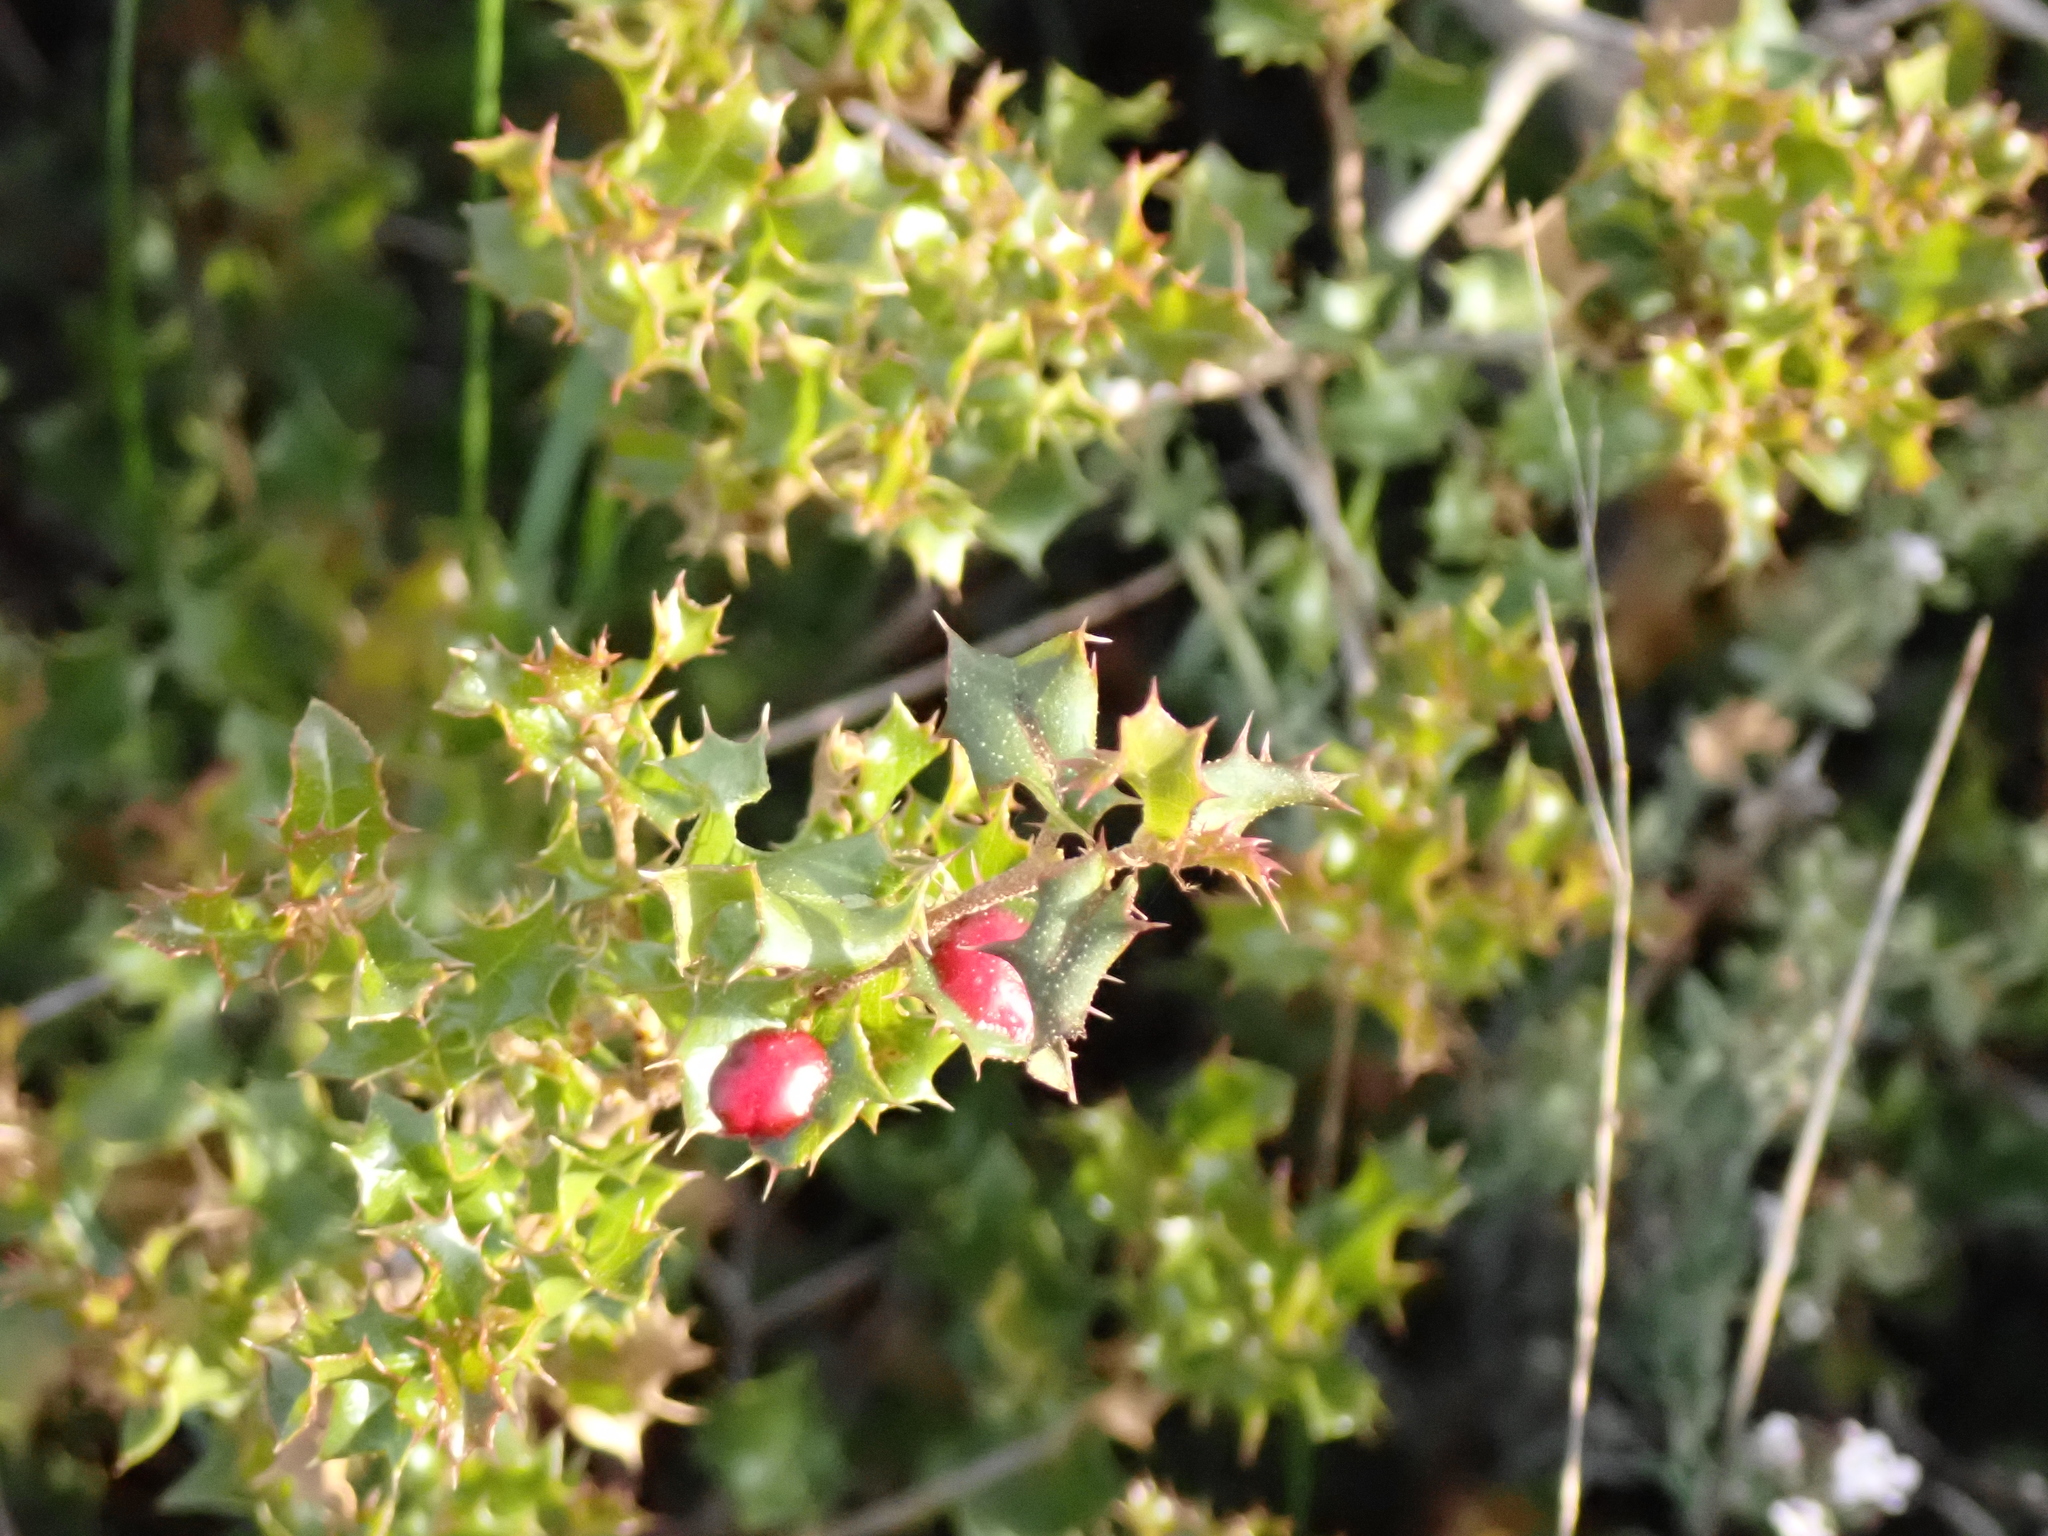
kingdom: Plantae
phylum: Tracheophyta
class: Magnoliopsida
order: Fagales
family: Fagaceae
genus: Quercus
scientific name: Quercus coccifera
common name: Kermes oak
